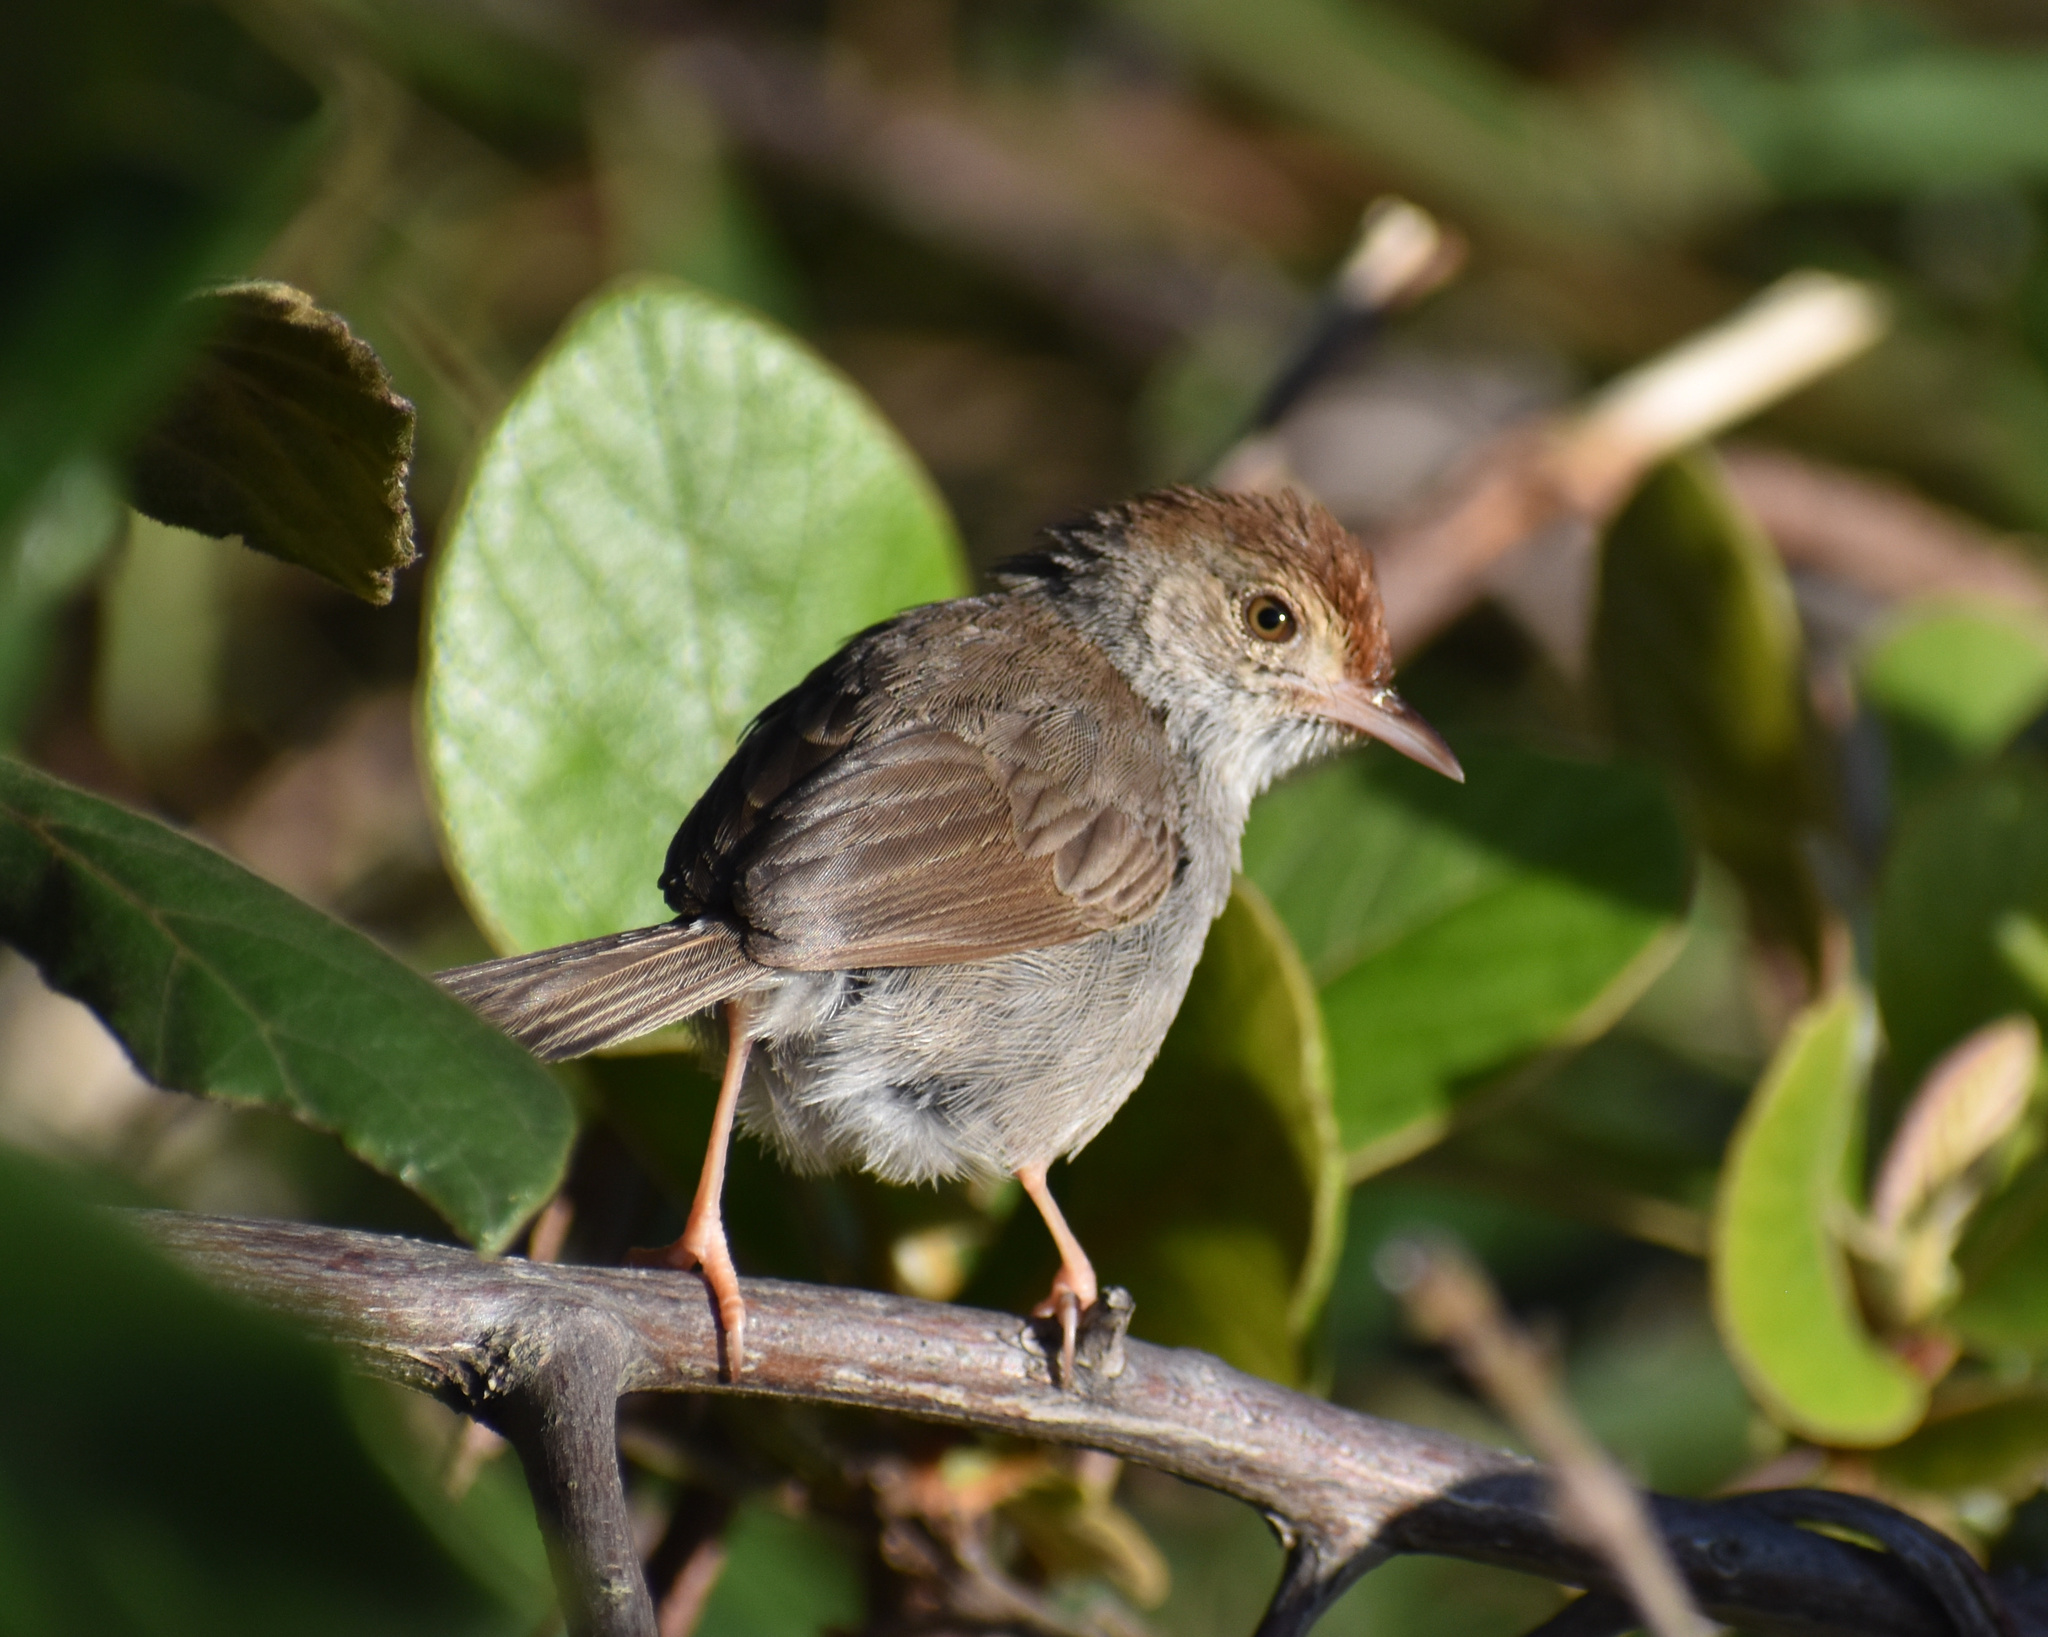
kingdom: Animalia
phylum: Chordata
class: Aves
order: Passeriformes
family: Cisticolidae
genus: Cisticola
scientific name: Cisticola fulvicapilla
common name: Neddicky
